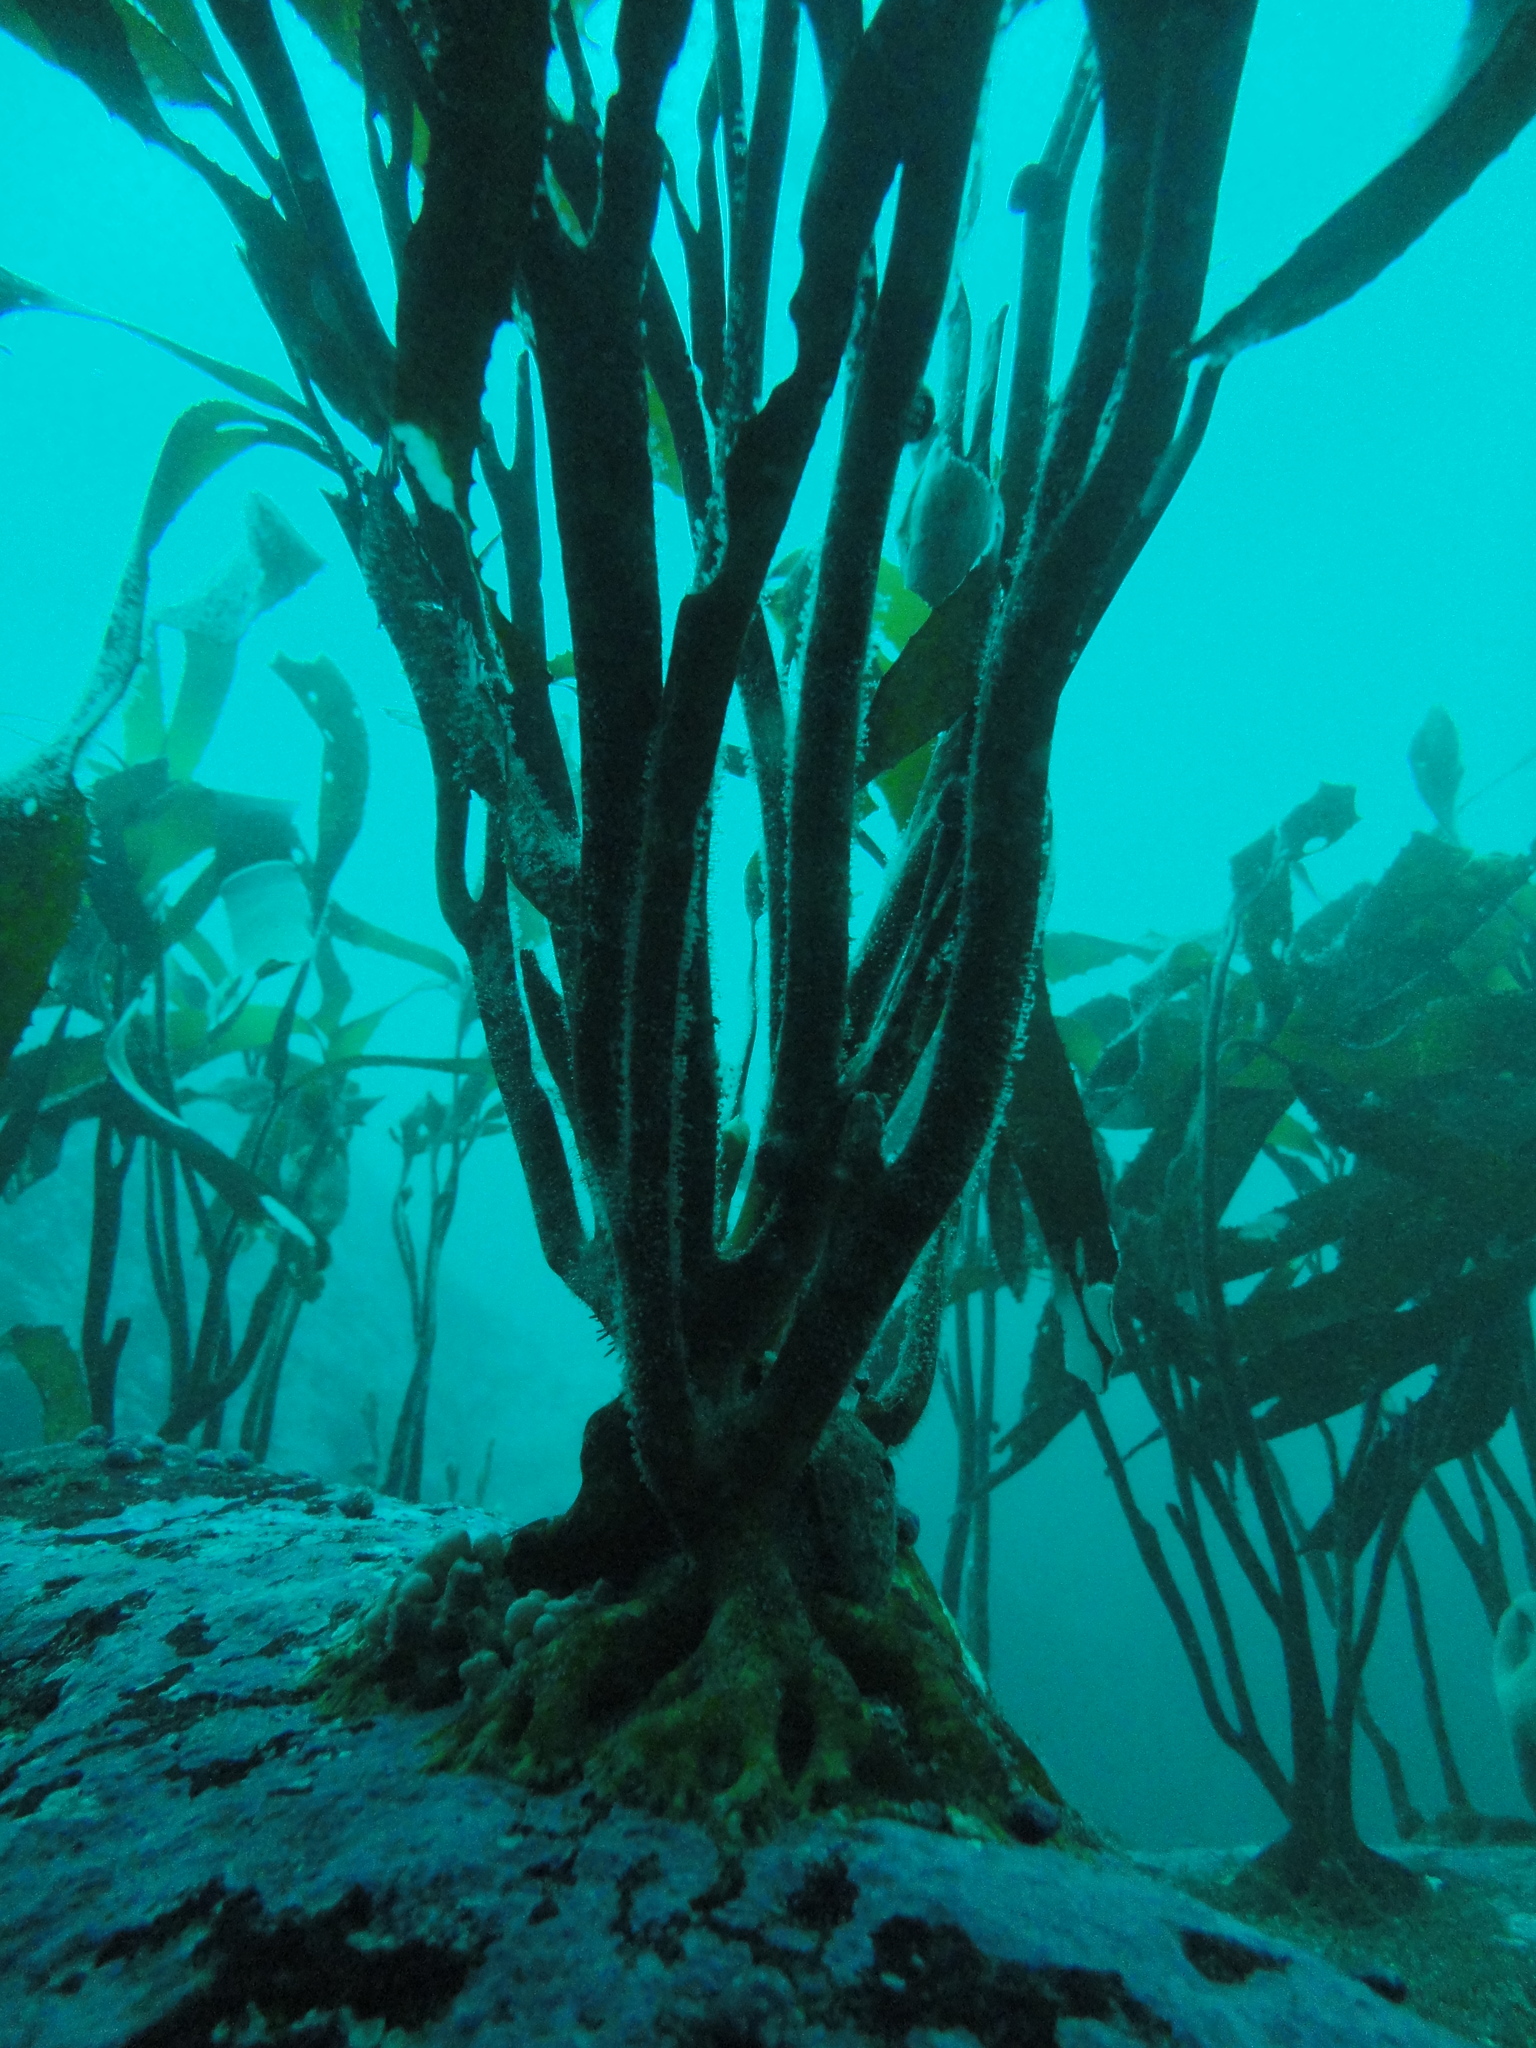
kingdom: Chromista
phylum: Ochrophyta
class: Phaeophyceae
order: Laminariales
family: Lessoniaceae
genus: Lessonia
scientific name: Lessonia trabeculata
